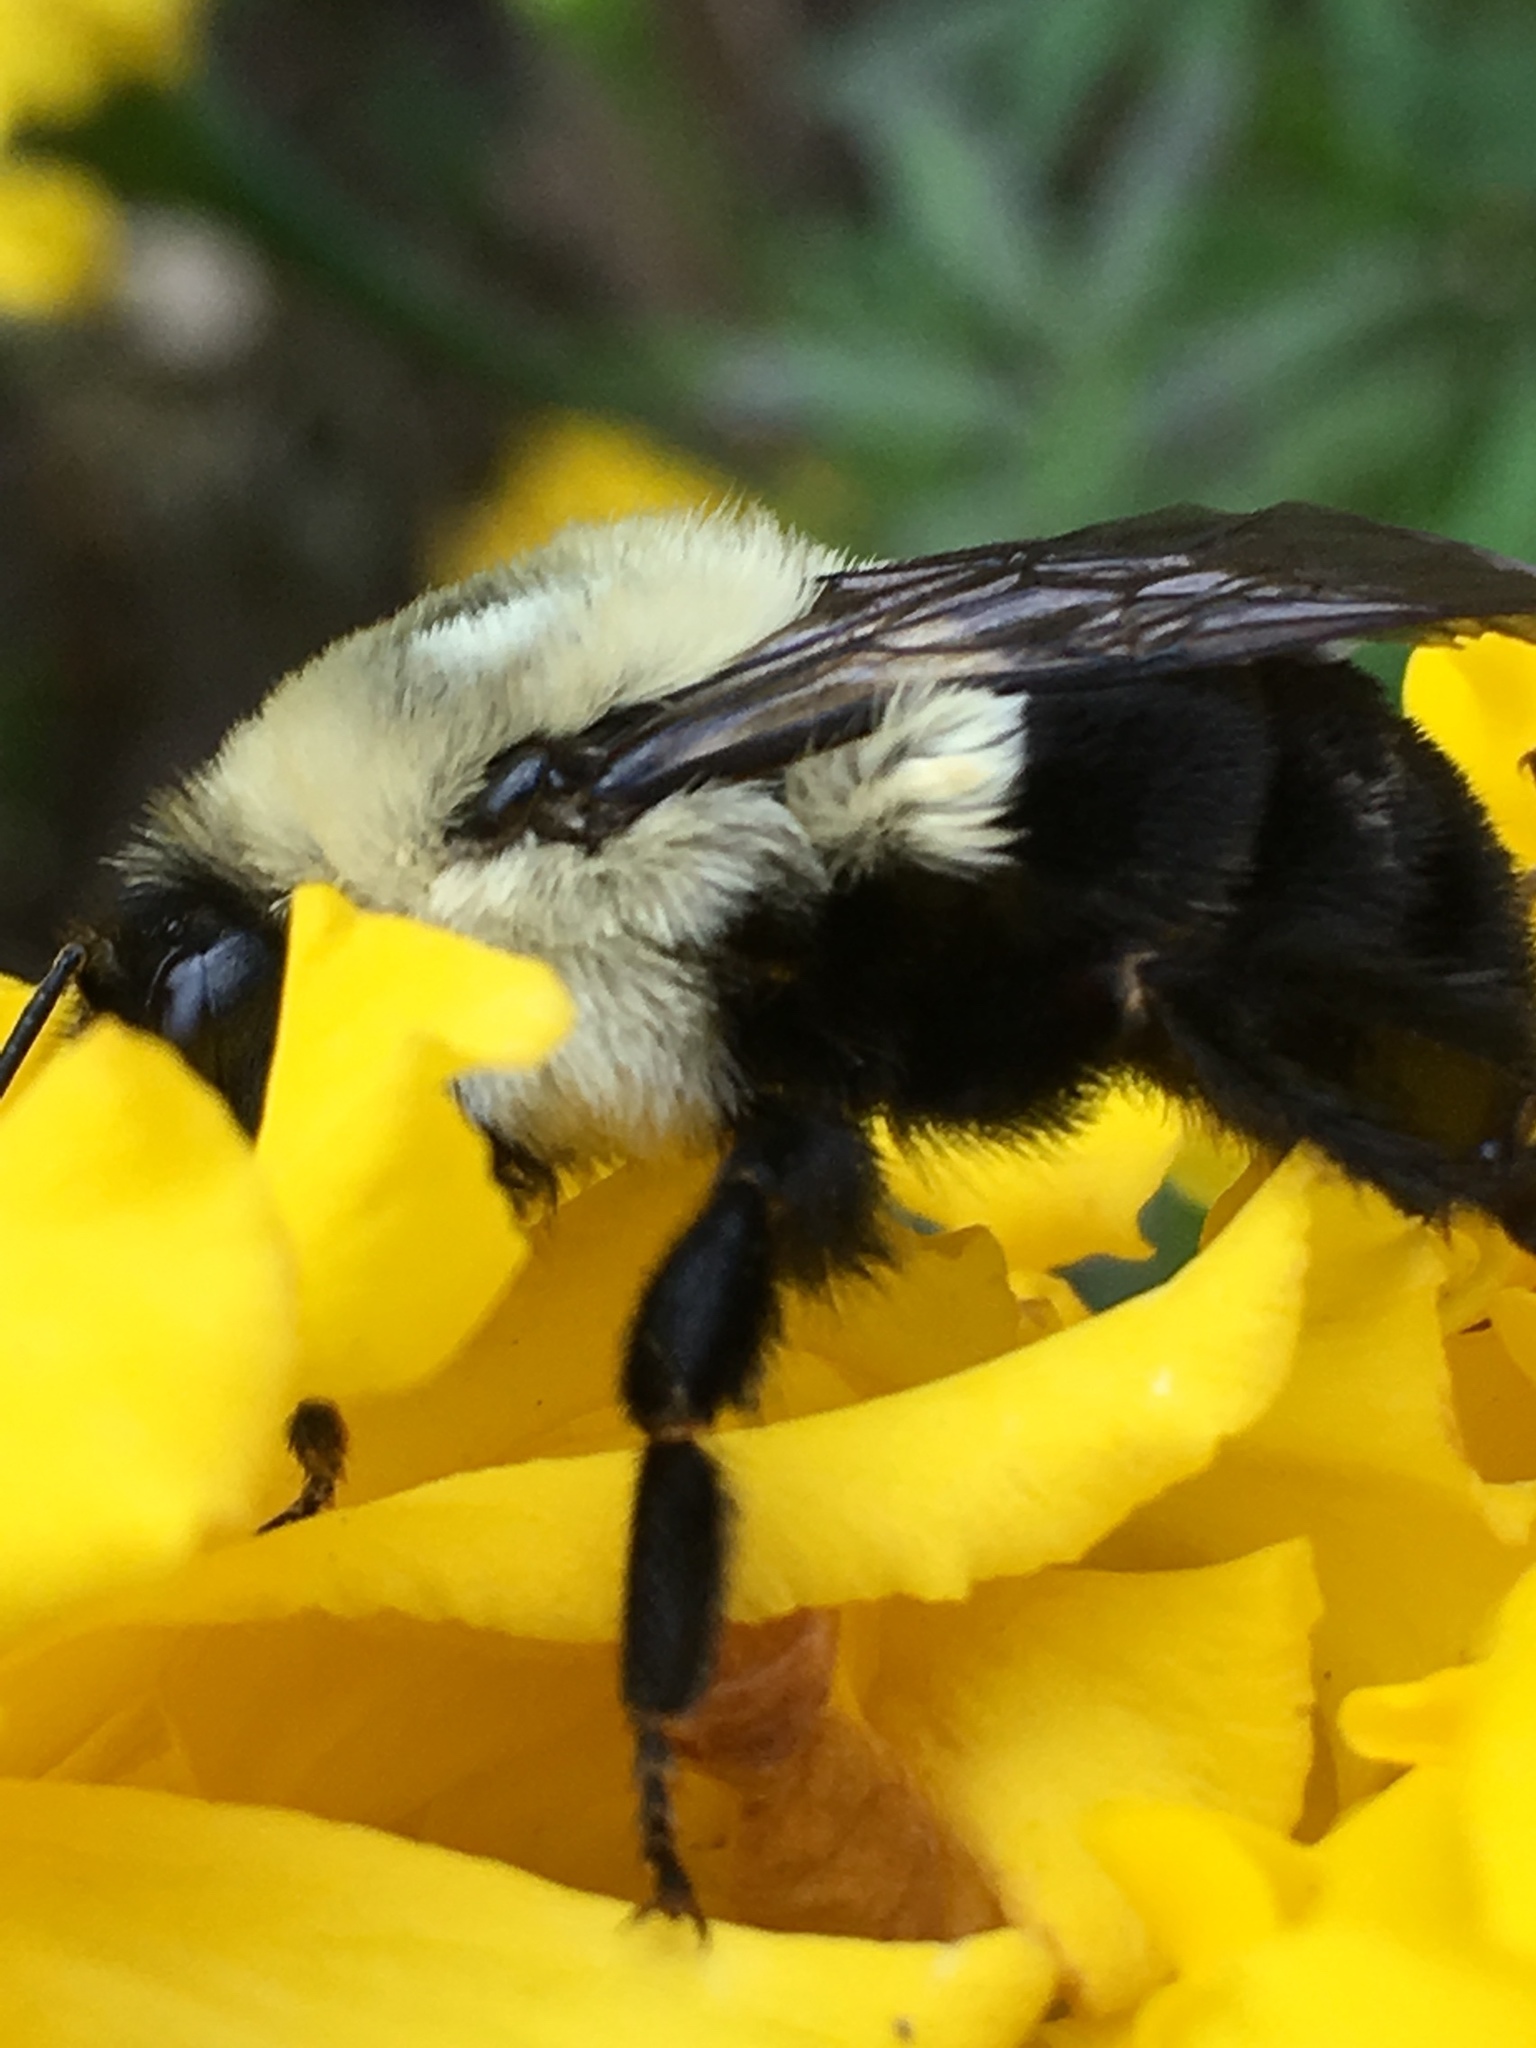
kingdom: Animalia
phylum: Arthropoda
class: Insecta
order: Hymenoptera
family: Apidae
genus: Bombus
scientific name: Bombus impatiens
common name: Common eastern bumble bee
